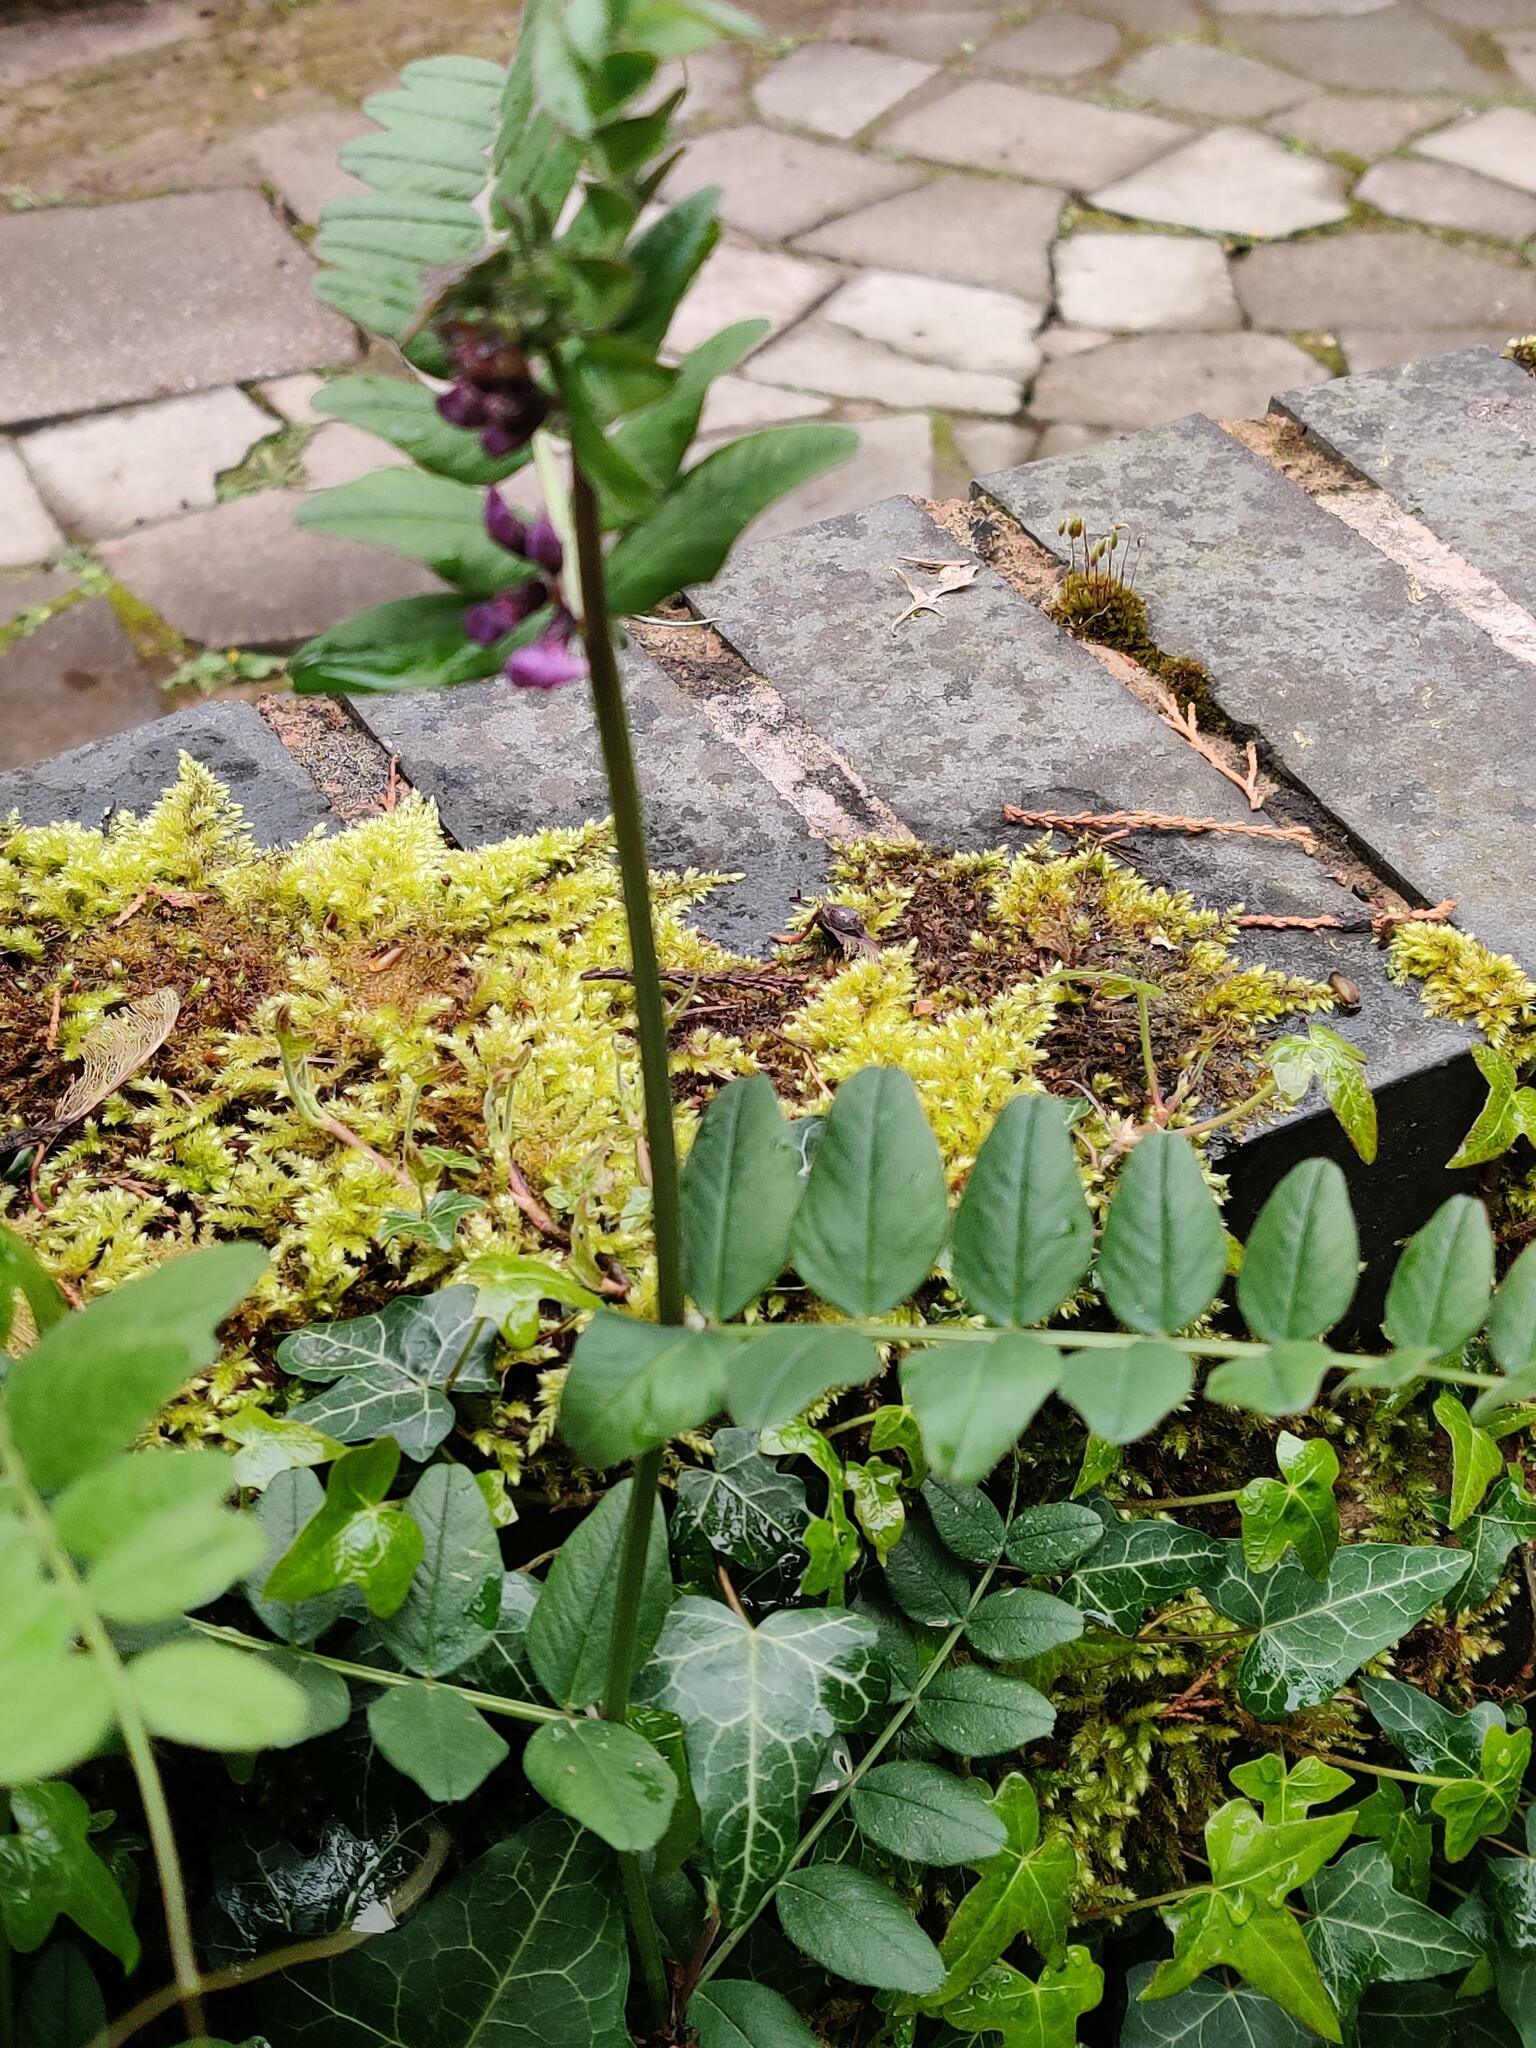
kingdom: Plantae
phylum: Tracheophyta
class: Magnoliopsida
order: Fabales
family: Fabaceae
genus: Vicia
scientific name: Vicia sepium
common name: Bush vetch
